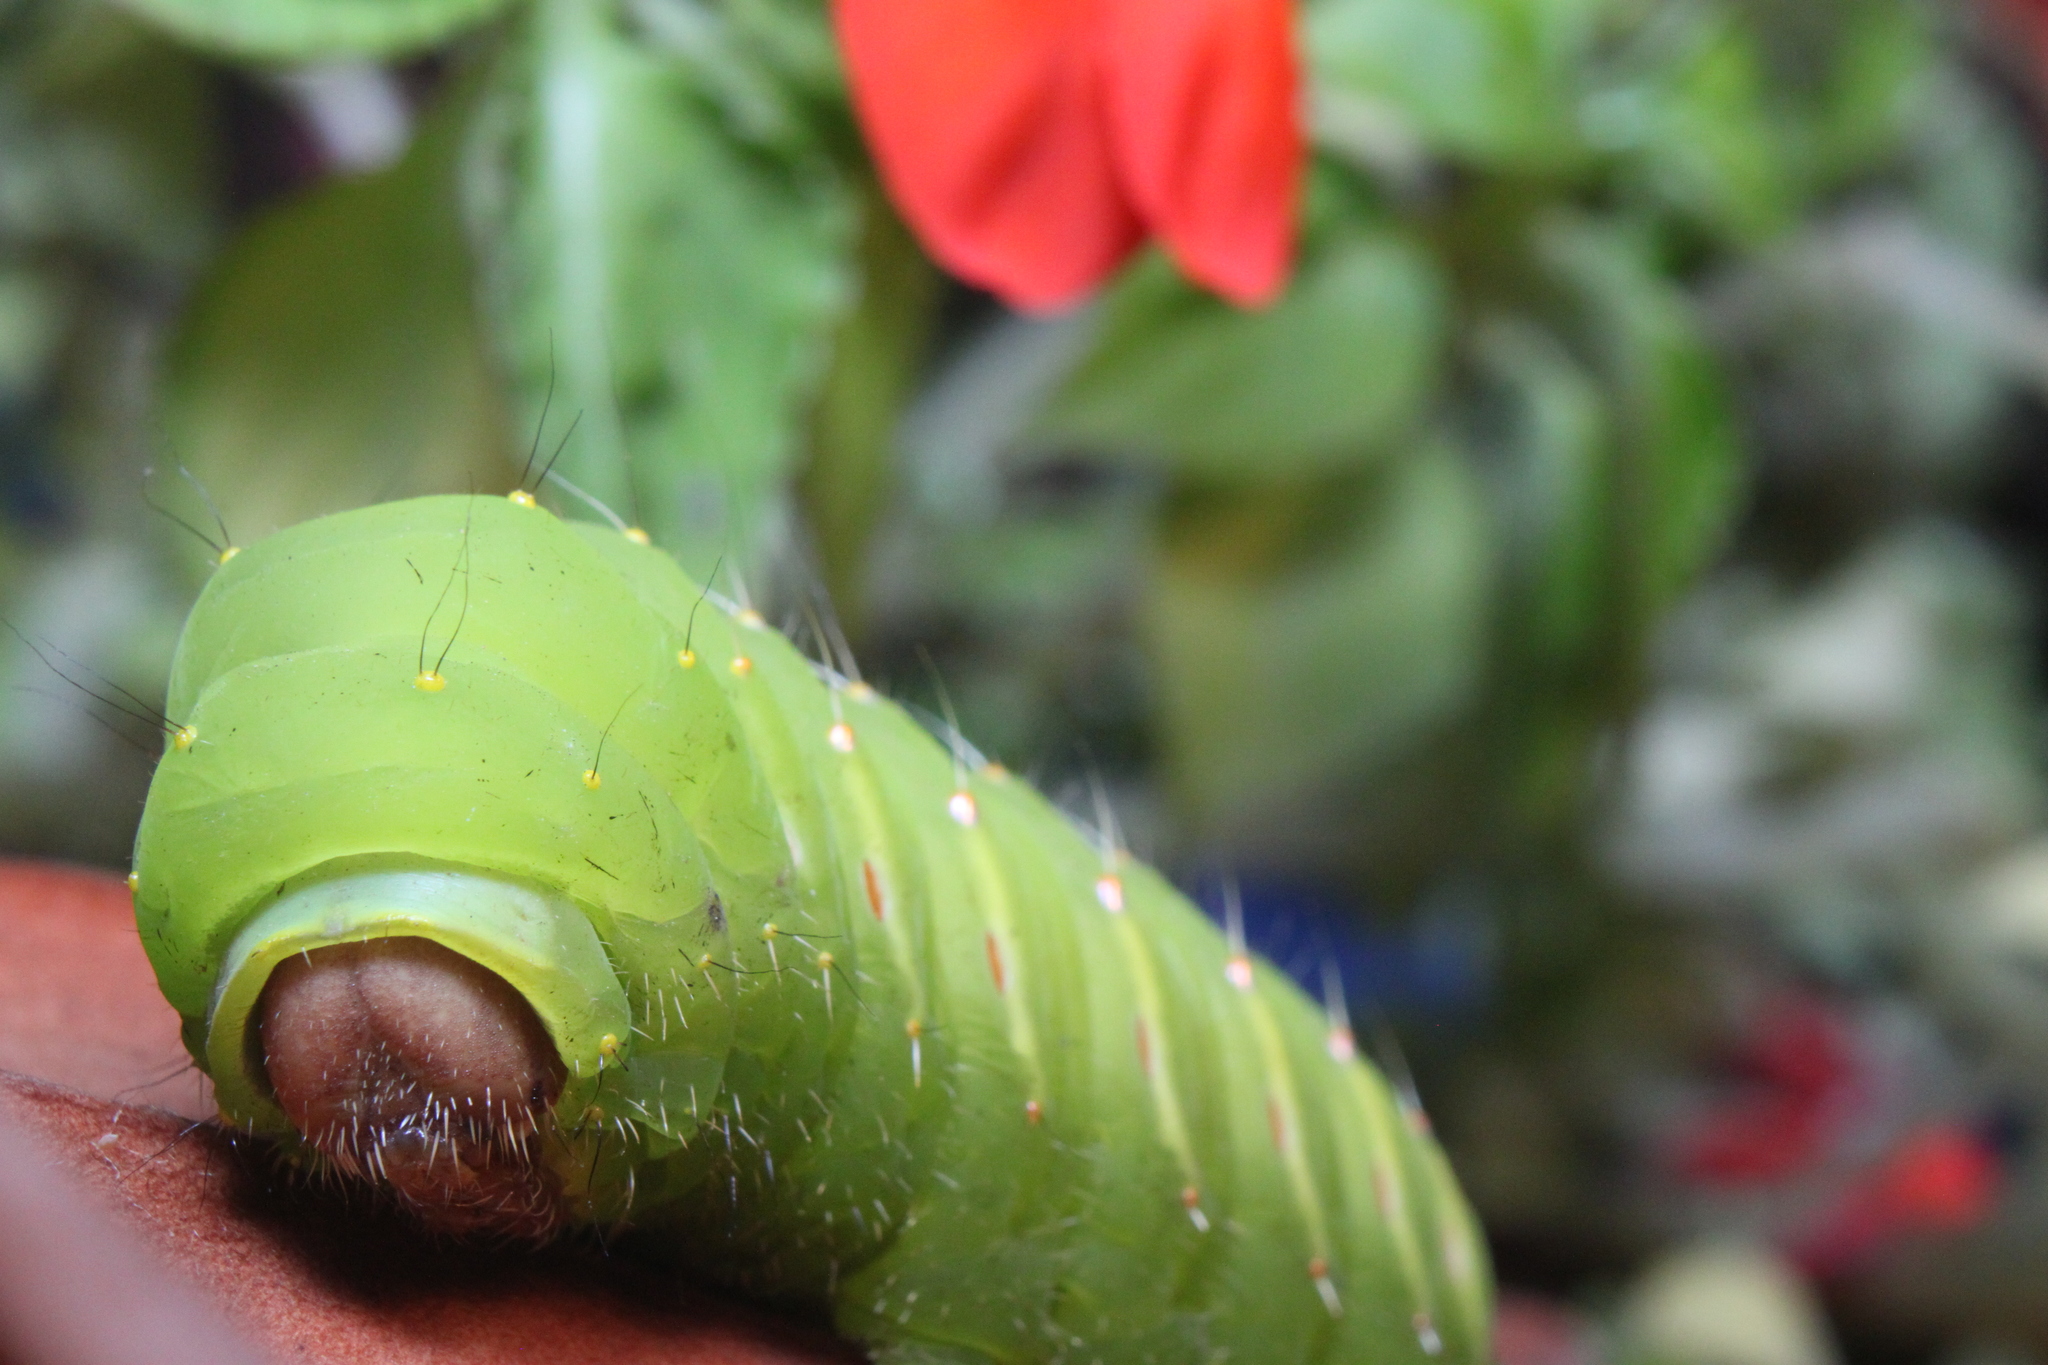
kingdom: Animalia
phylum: Arthropoda
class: Insecta
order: Lepidoptera
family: Saturniidae
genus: Antheraea
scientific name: Antheraea polyphemus
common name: Polyphemus moth
